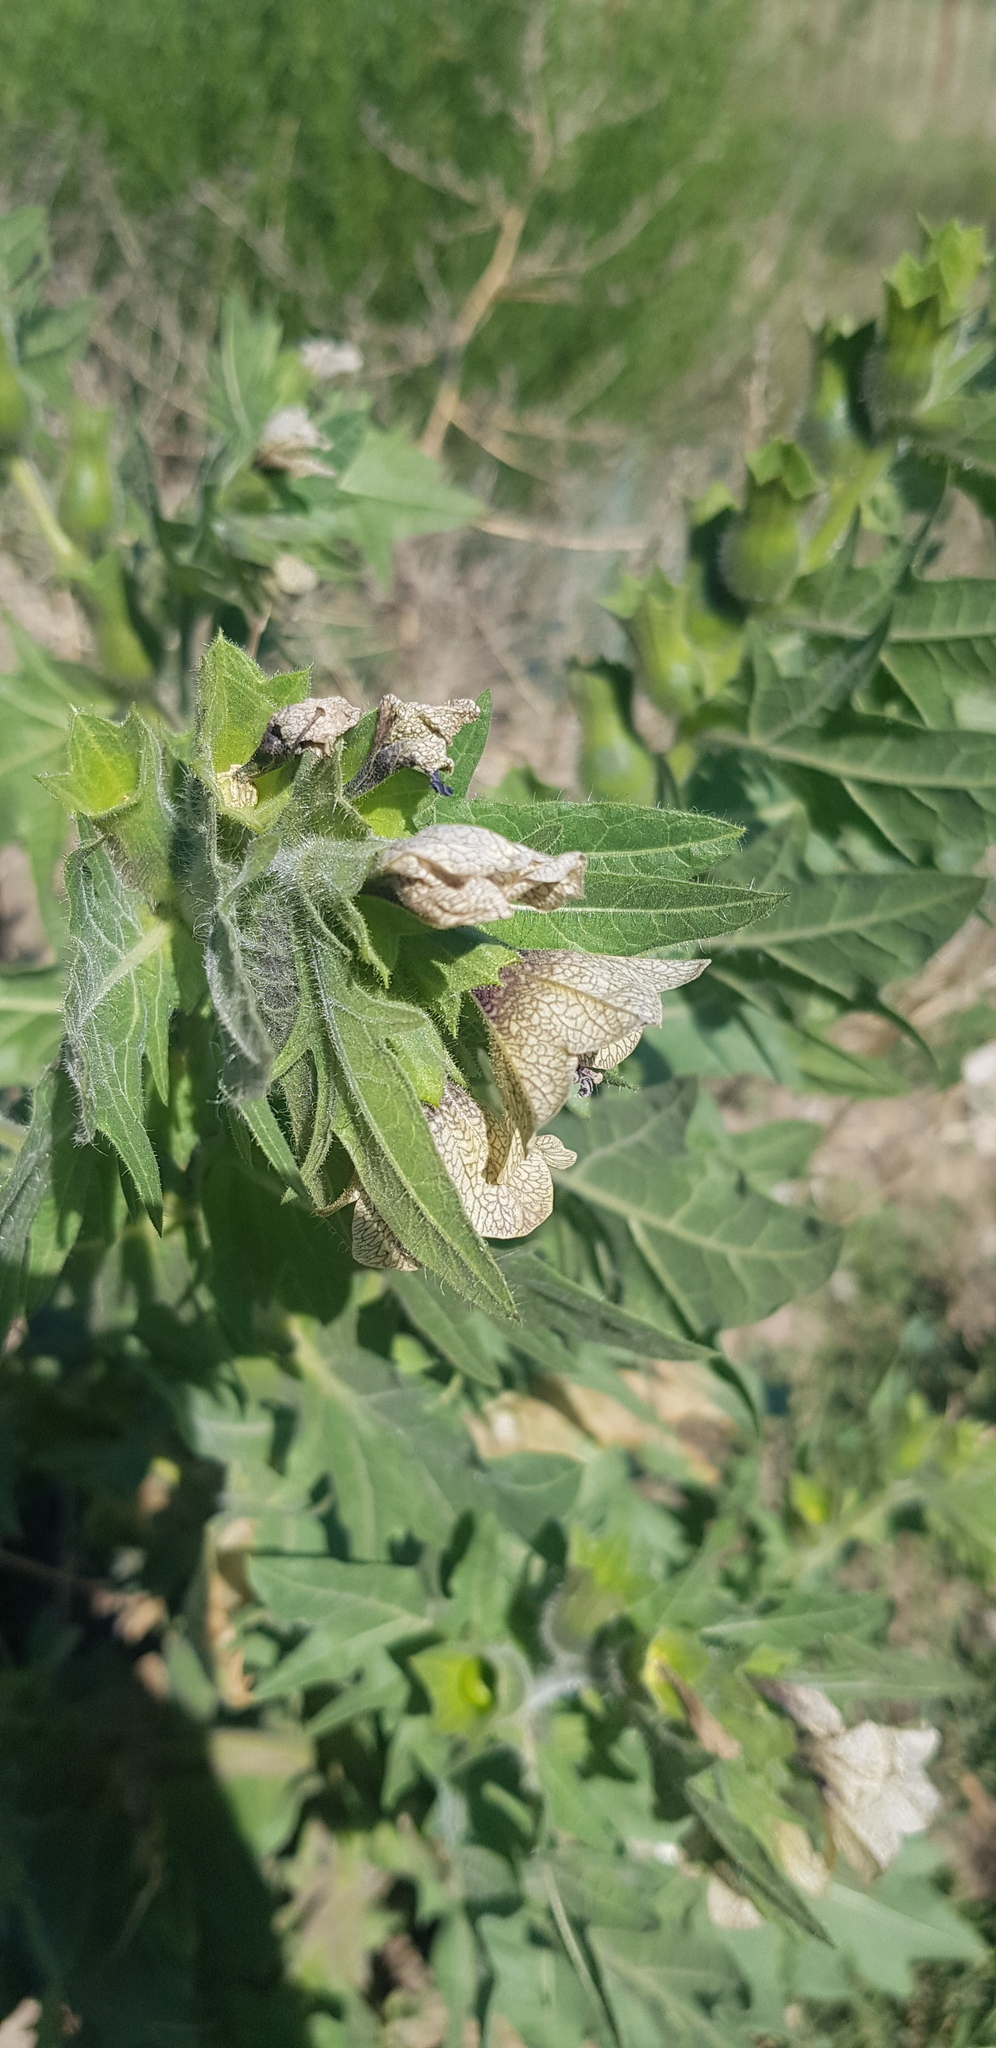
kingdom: Plantae
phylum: Tracheophyta
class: Magnoliopsida
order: Solanales
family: Solanaceae
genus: Hyoscyamus
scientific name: Hyoscyamus niger
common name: Henbane
